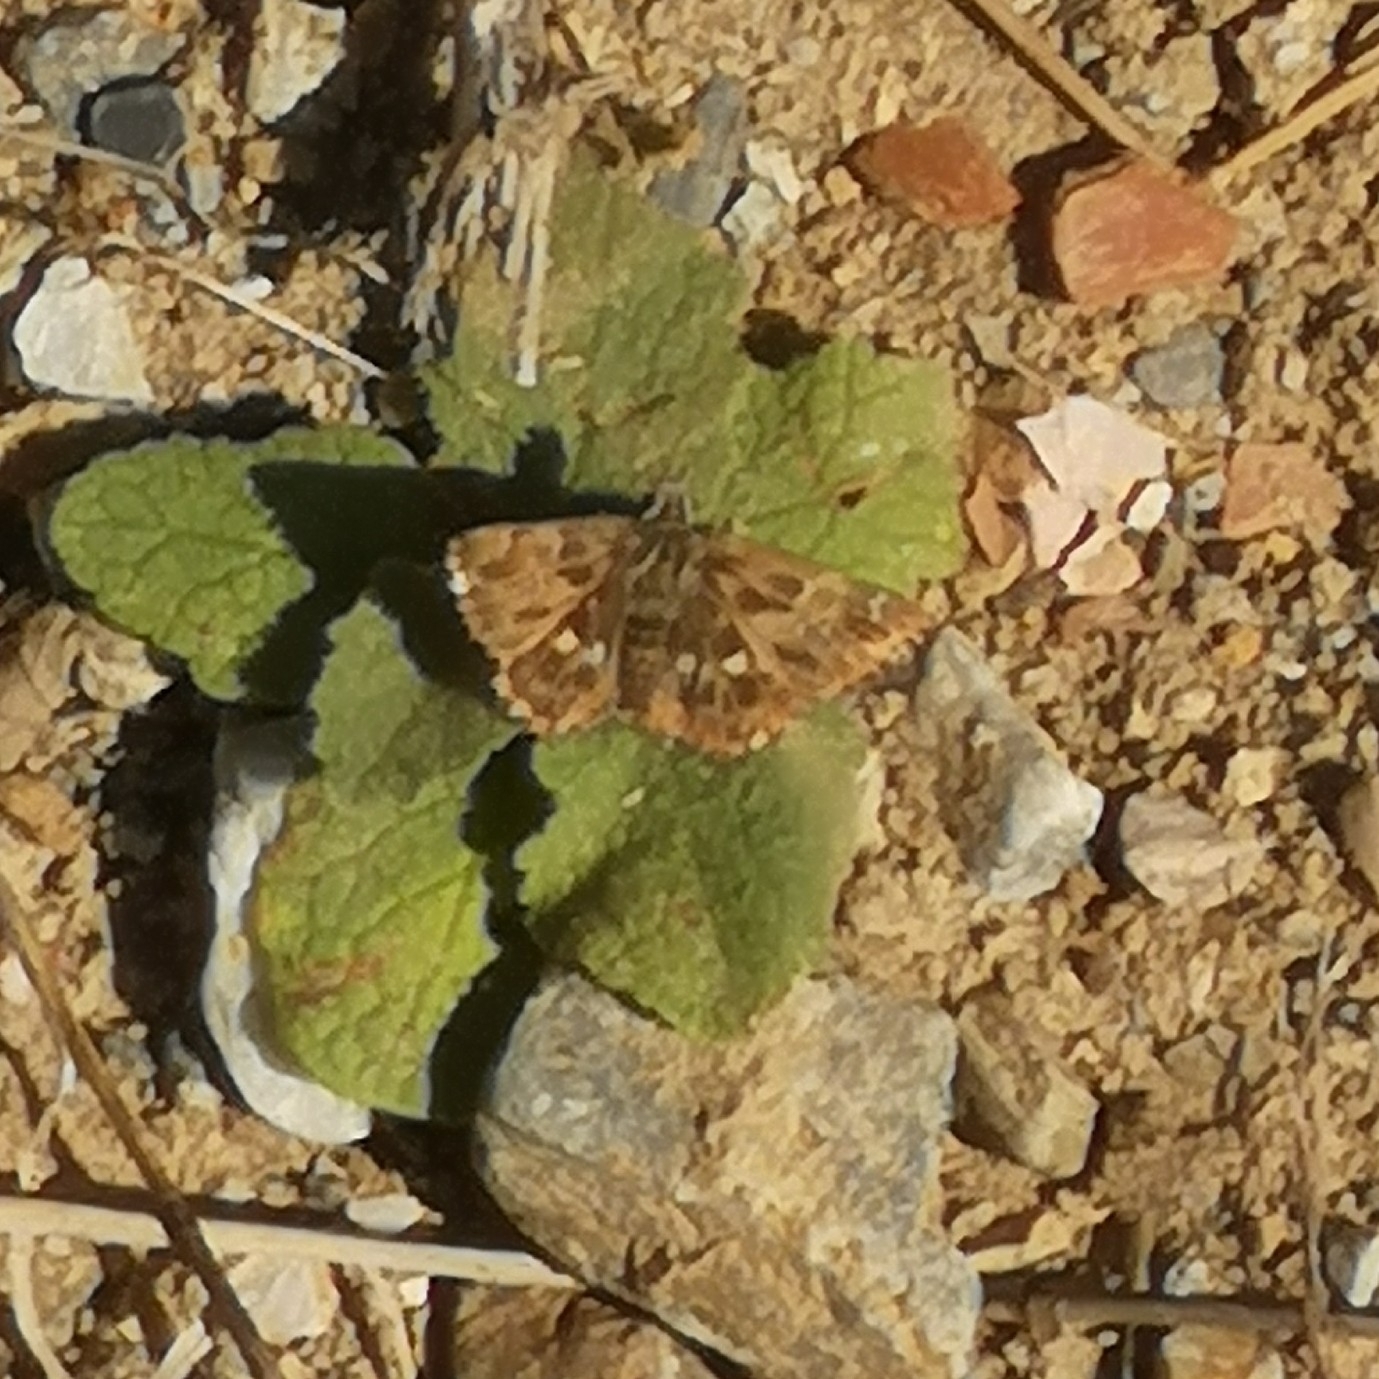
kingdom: Animalia
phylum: Arthropoda
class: Insecta
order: Lepidoptera
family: Hesperiidae
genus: Carcharodus
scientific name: Carcharodus alceae
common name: Mallow skipper
